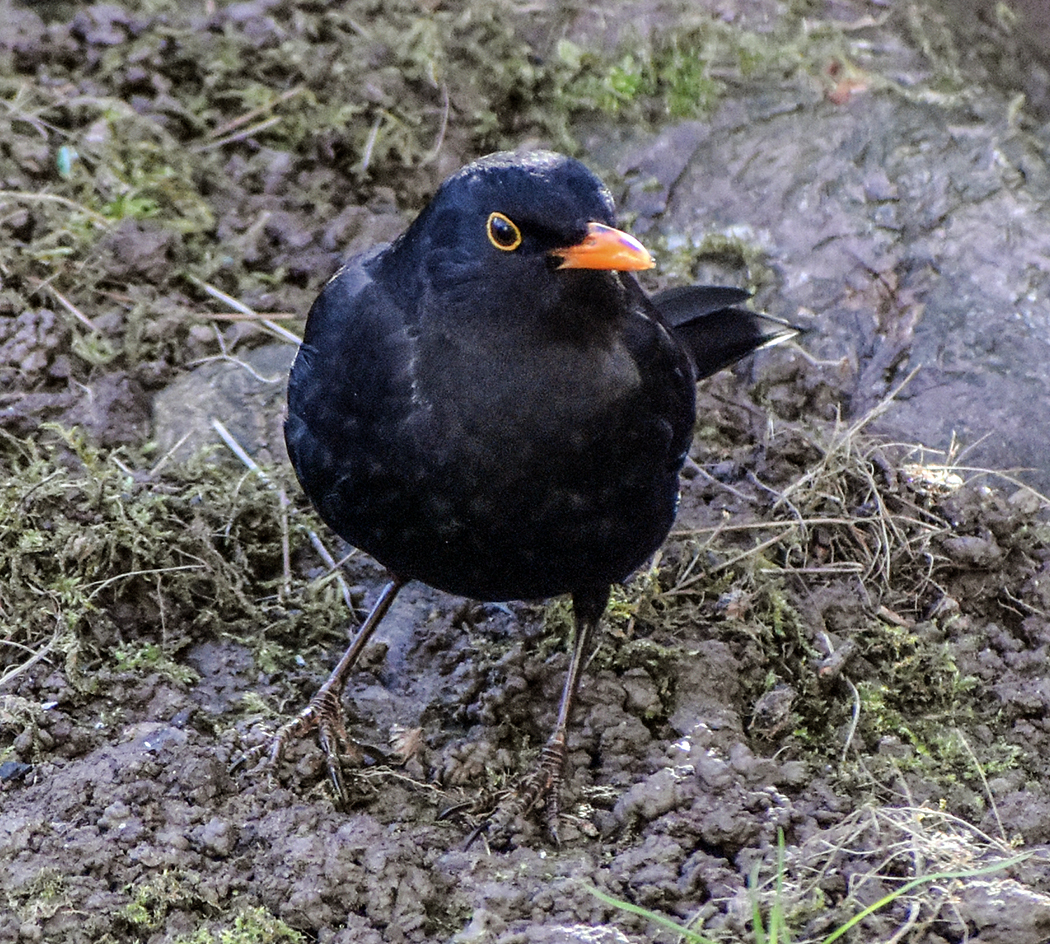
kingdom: Animalia
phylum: Chordata
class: Aves
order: Passeriformes
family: Turdidae
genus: Turdus
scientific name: Turdus merula
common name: Common blackbird
